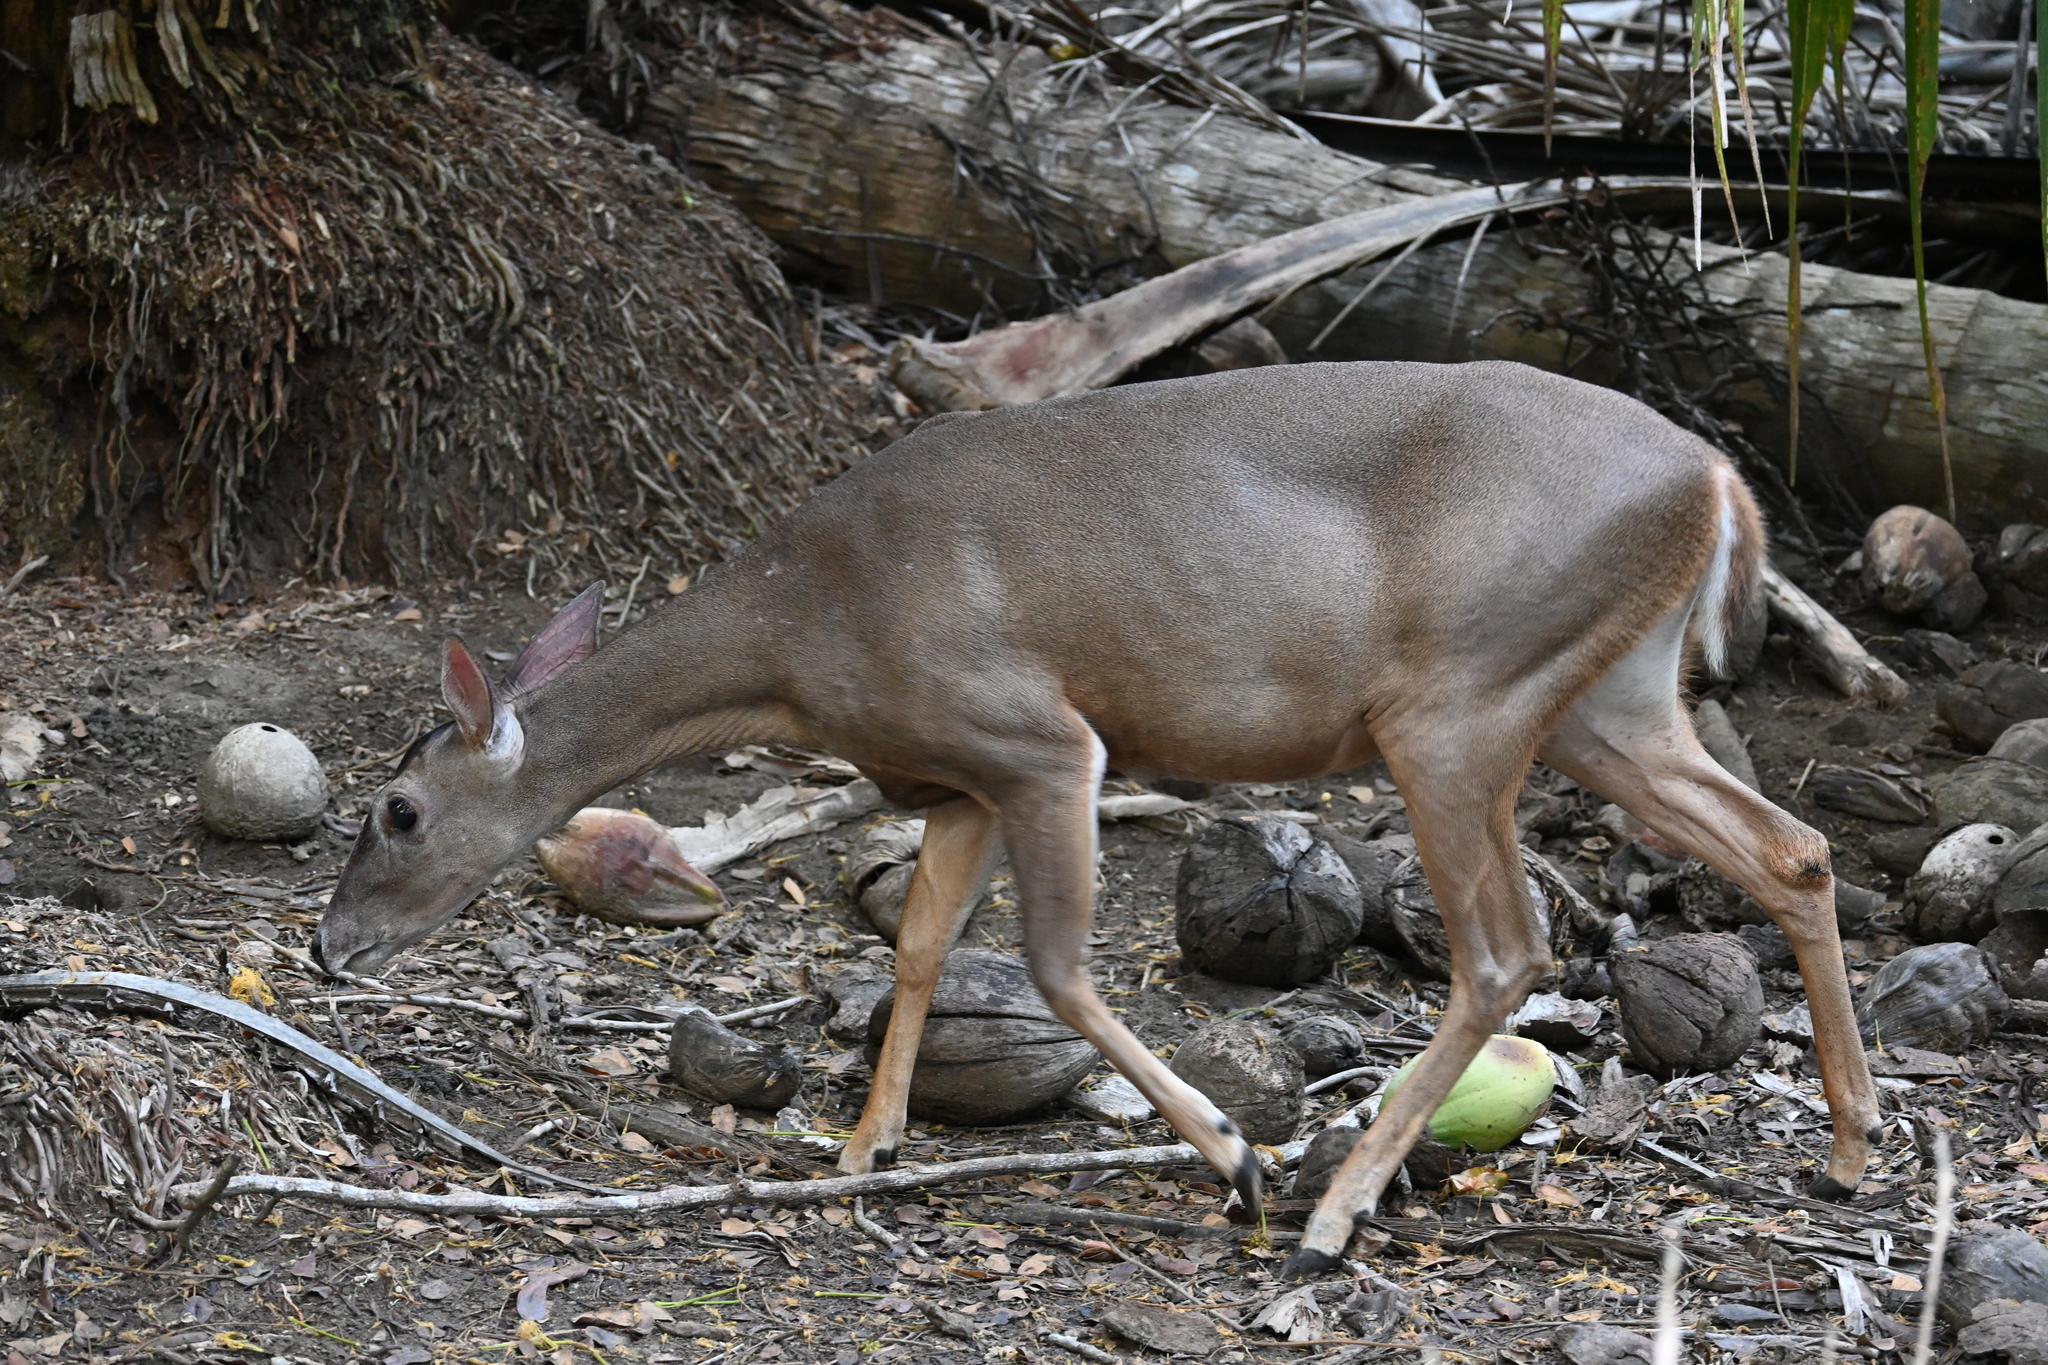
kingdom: Animalia
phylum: Chordata
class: Mammalia
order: Artiodactyla
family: Cervidae
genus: Odocoileus
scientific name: Odocoileus virginianus
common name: White-tailed deer
